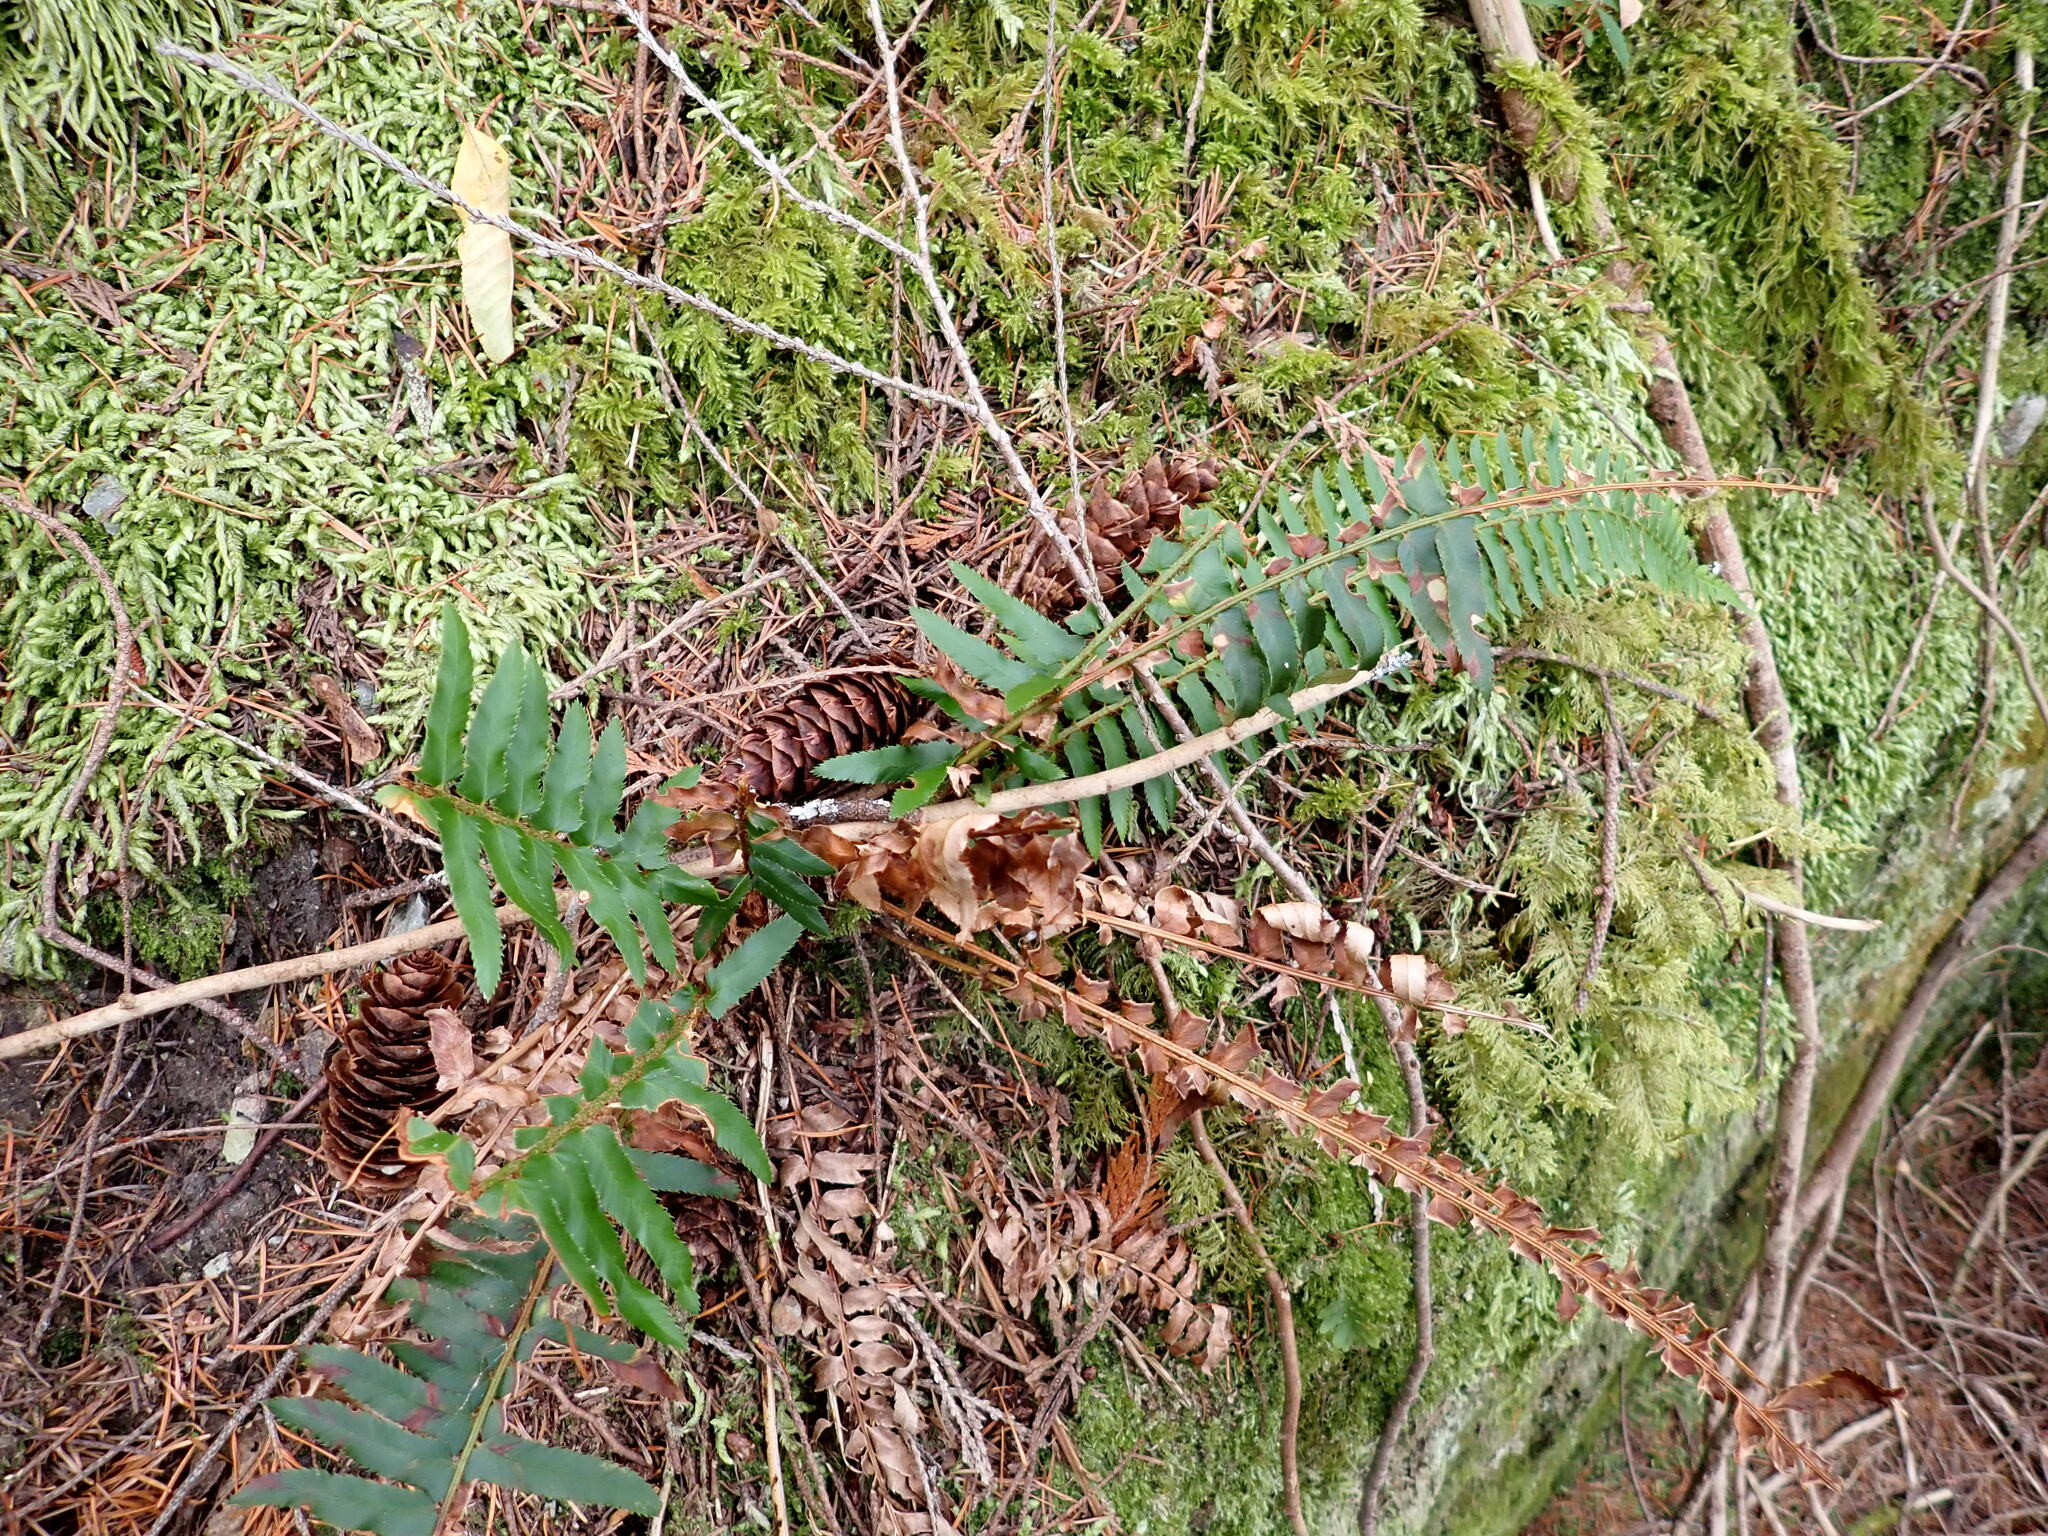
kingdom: Plantae
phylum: Tracheophyta
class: Polypodiopsida
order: Polypodiales
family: Dryopteridaceae
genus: Polystichum
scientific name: Polystichum munitum
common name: Western sword-fern
